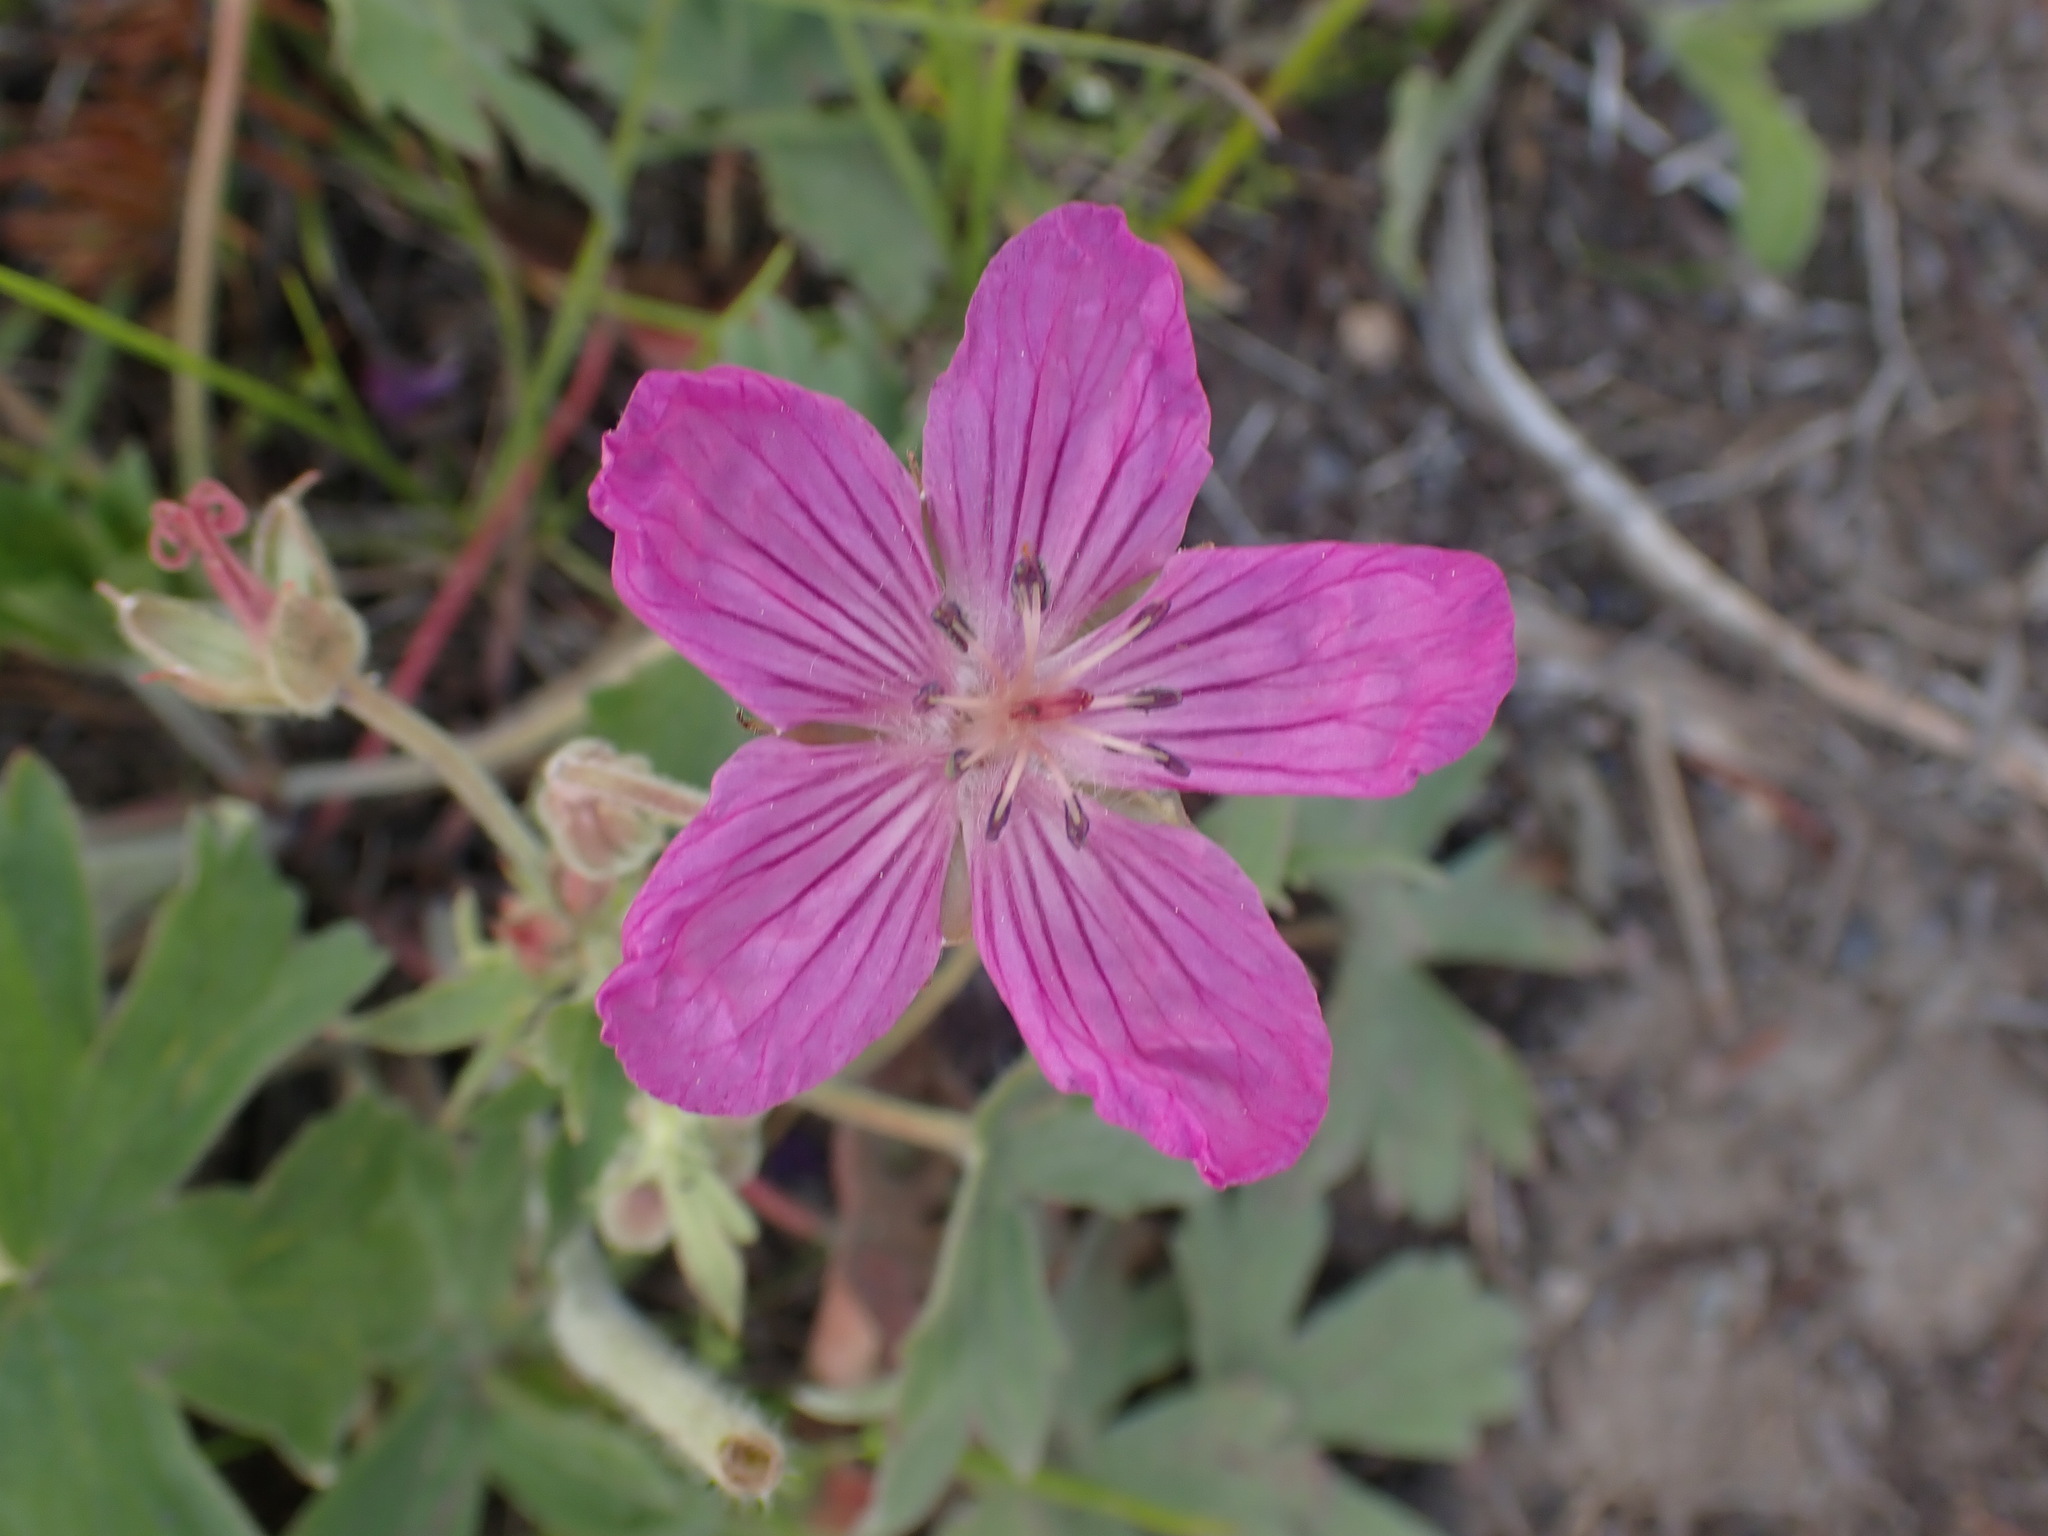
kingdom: Plantae
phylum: Tracheophyta
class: Magnoliopsida
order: Geraniales
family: Geraniaceae
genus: Geranium
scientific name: Geranium viscosissimum
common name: Purple geranium
